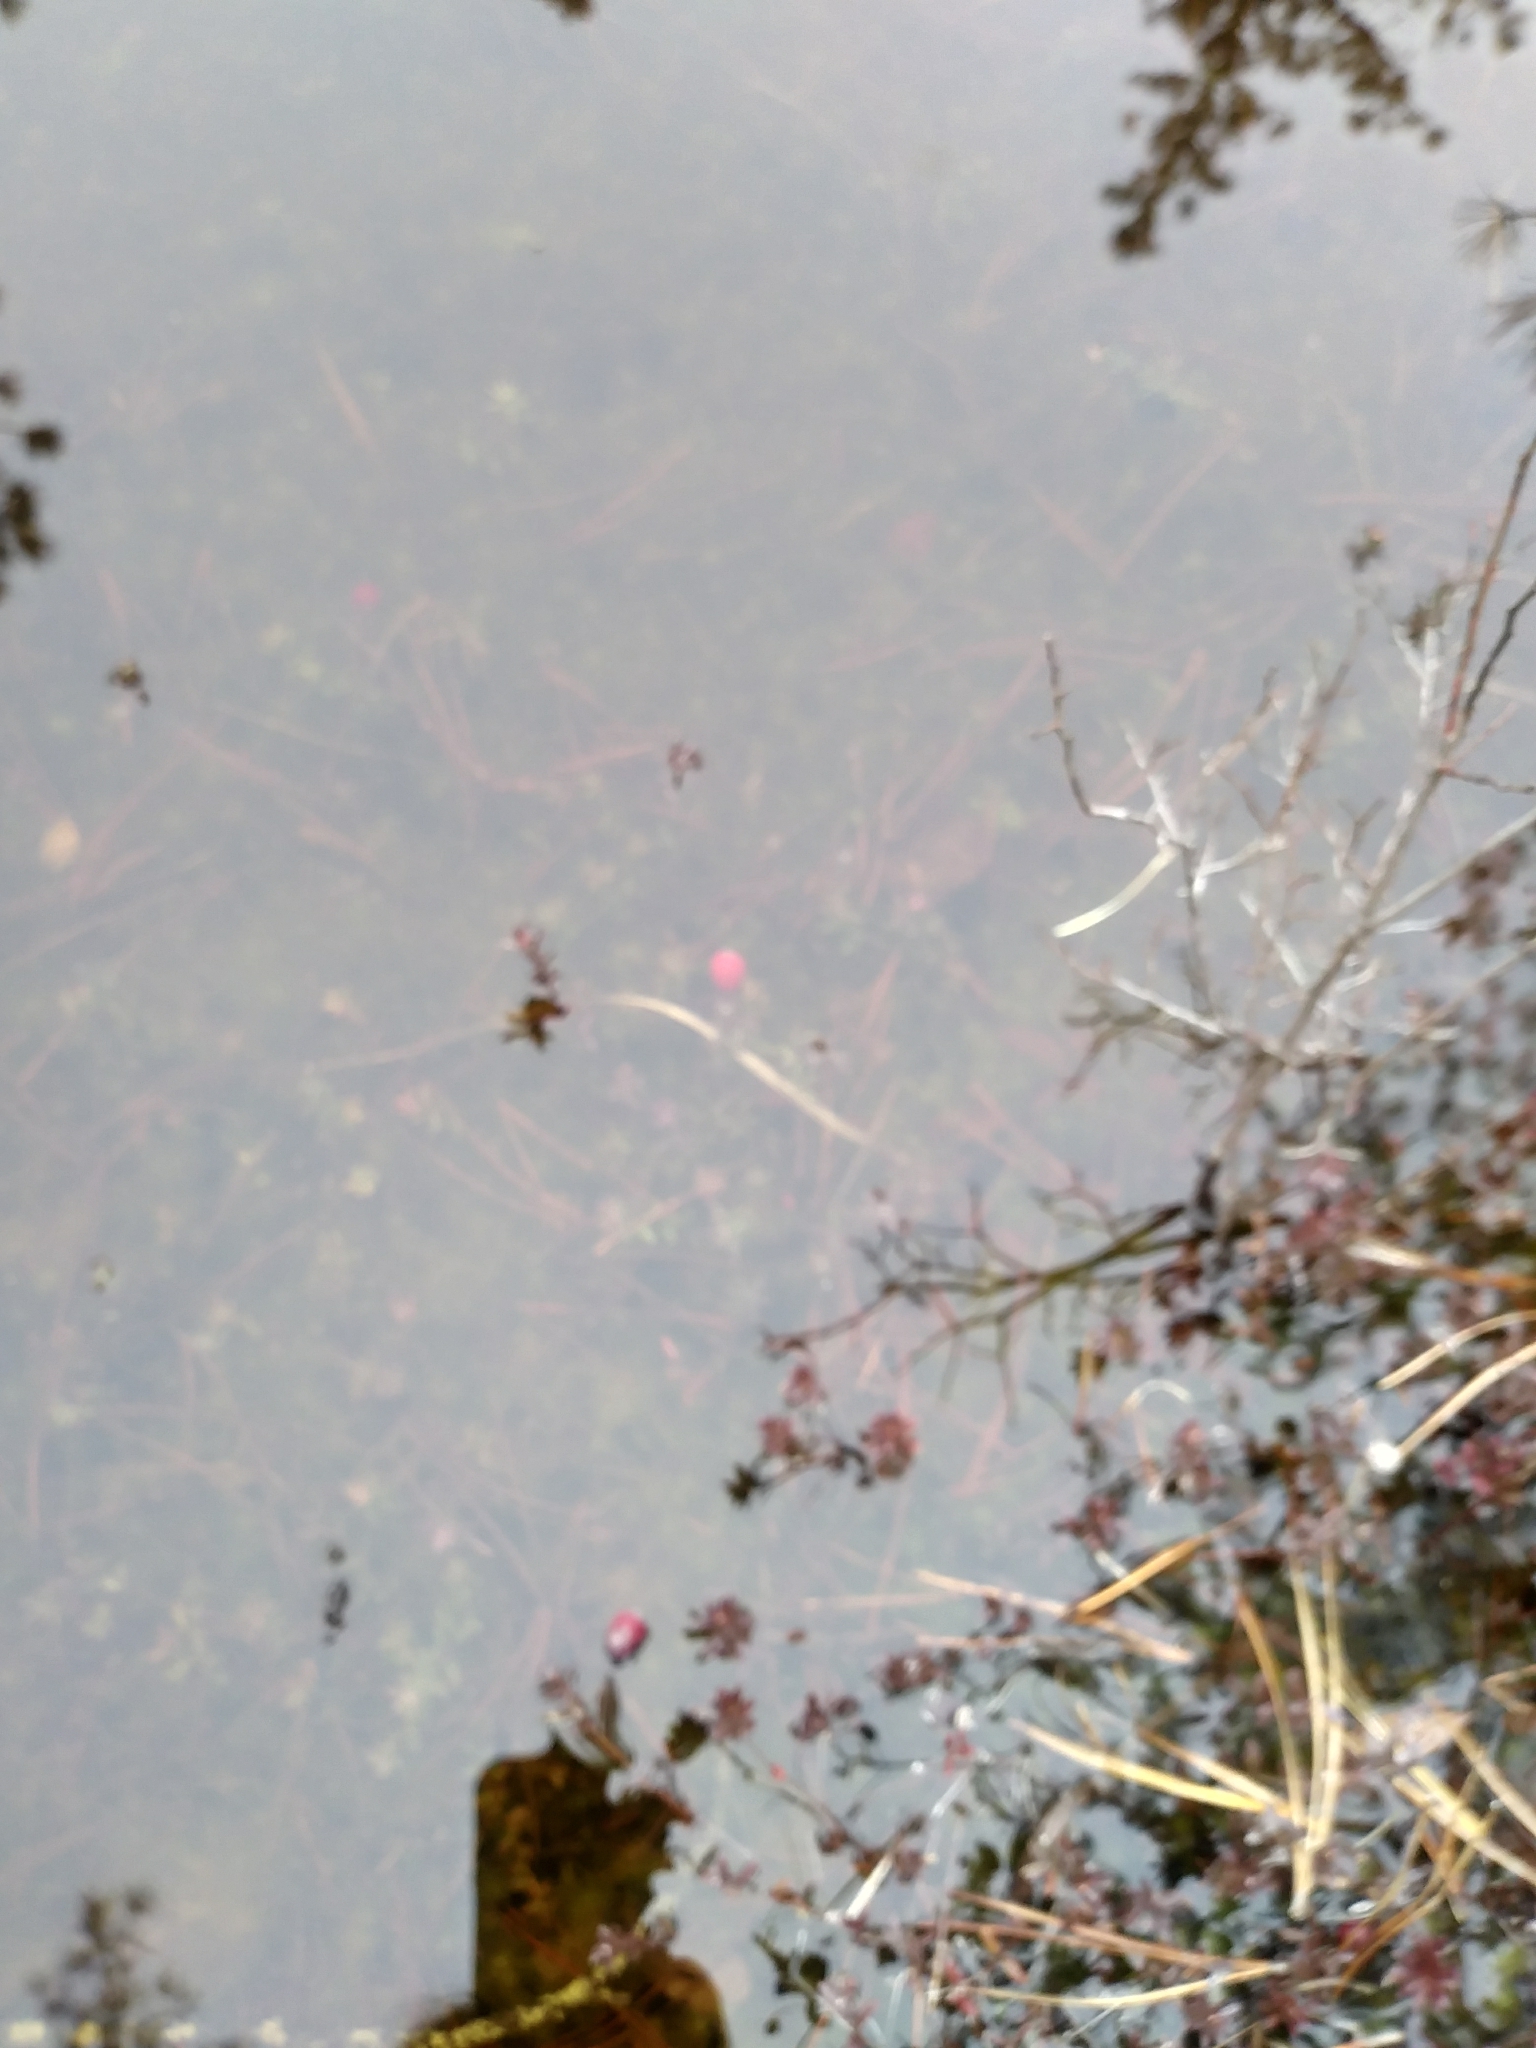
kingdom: Plantae
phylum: Tracheophyta
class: Magnoliopsida
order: Ericales
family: Ericaceae
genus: Vaccinium
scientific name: Vaccinium macrocarpon
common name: American cranberry
